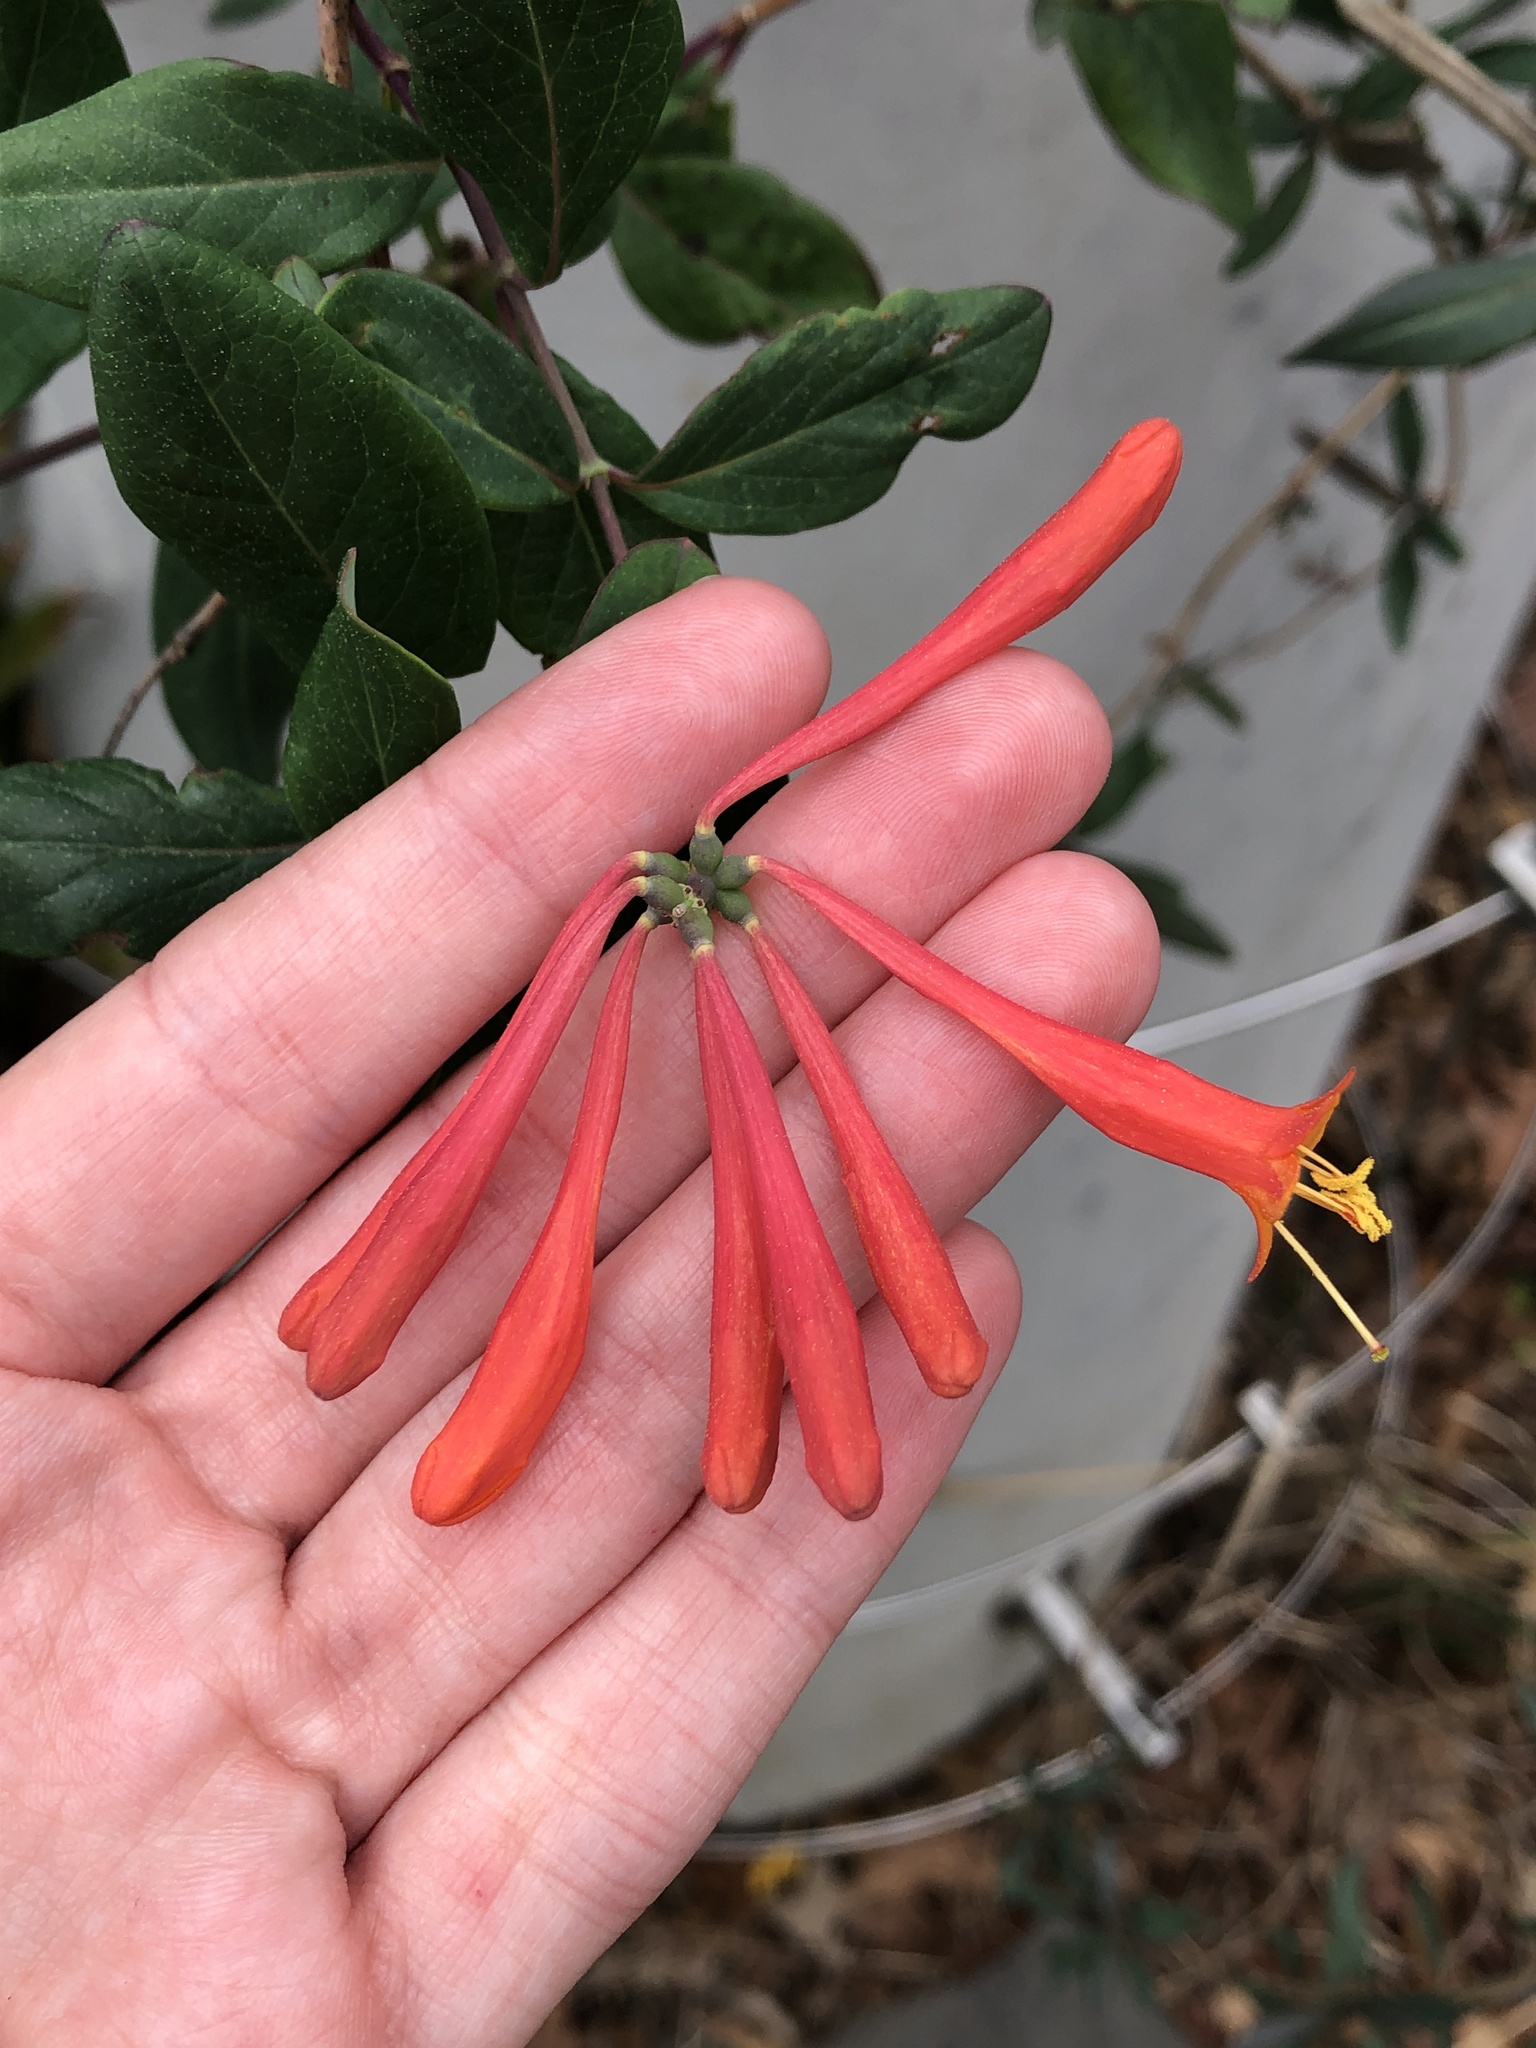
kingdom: Plantae
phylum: Tracheophyta
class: Magnoliopsida
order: Dipsacales
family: Caprifoliaceae
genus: Lonicera
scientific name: Lonicera sempervirens
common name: Coral honeysuckle
